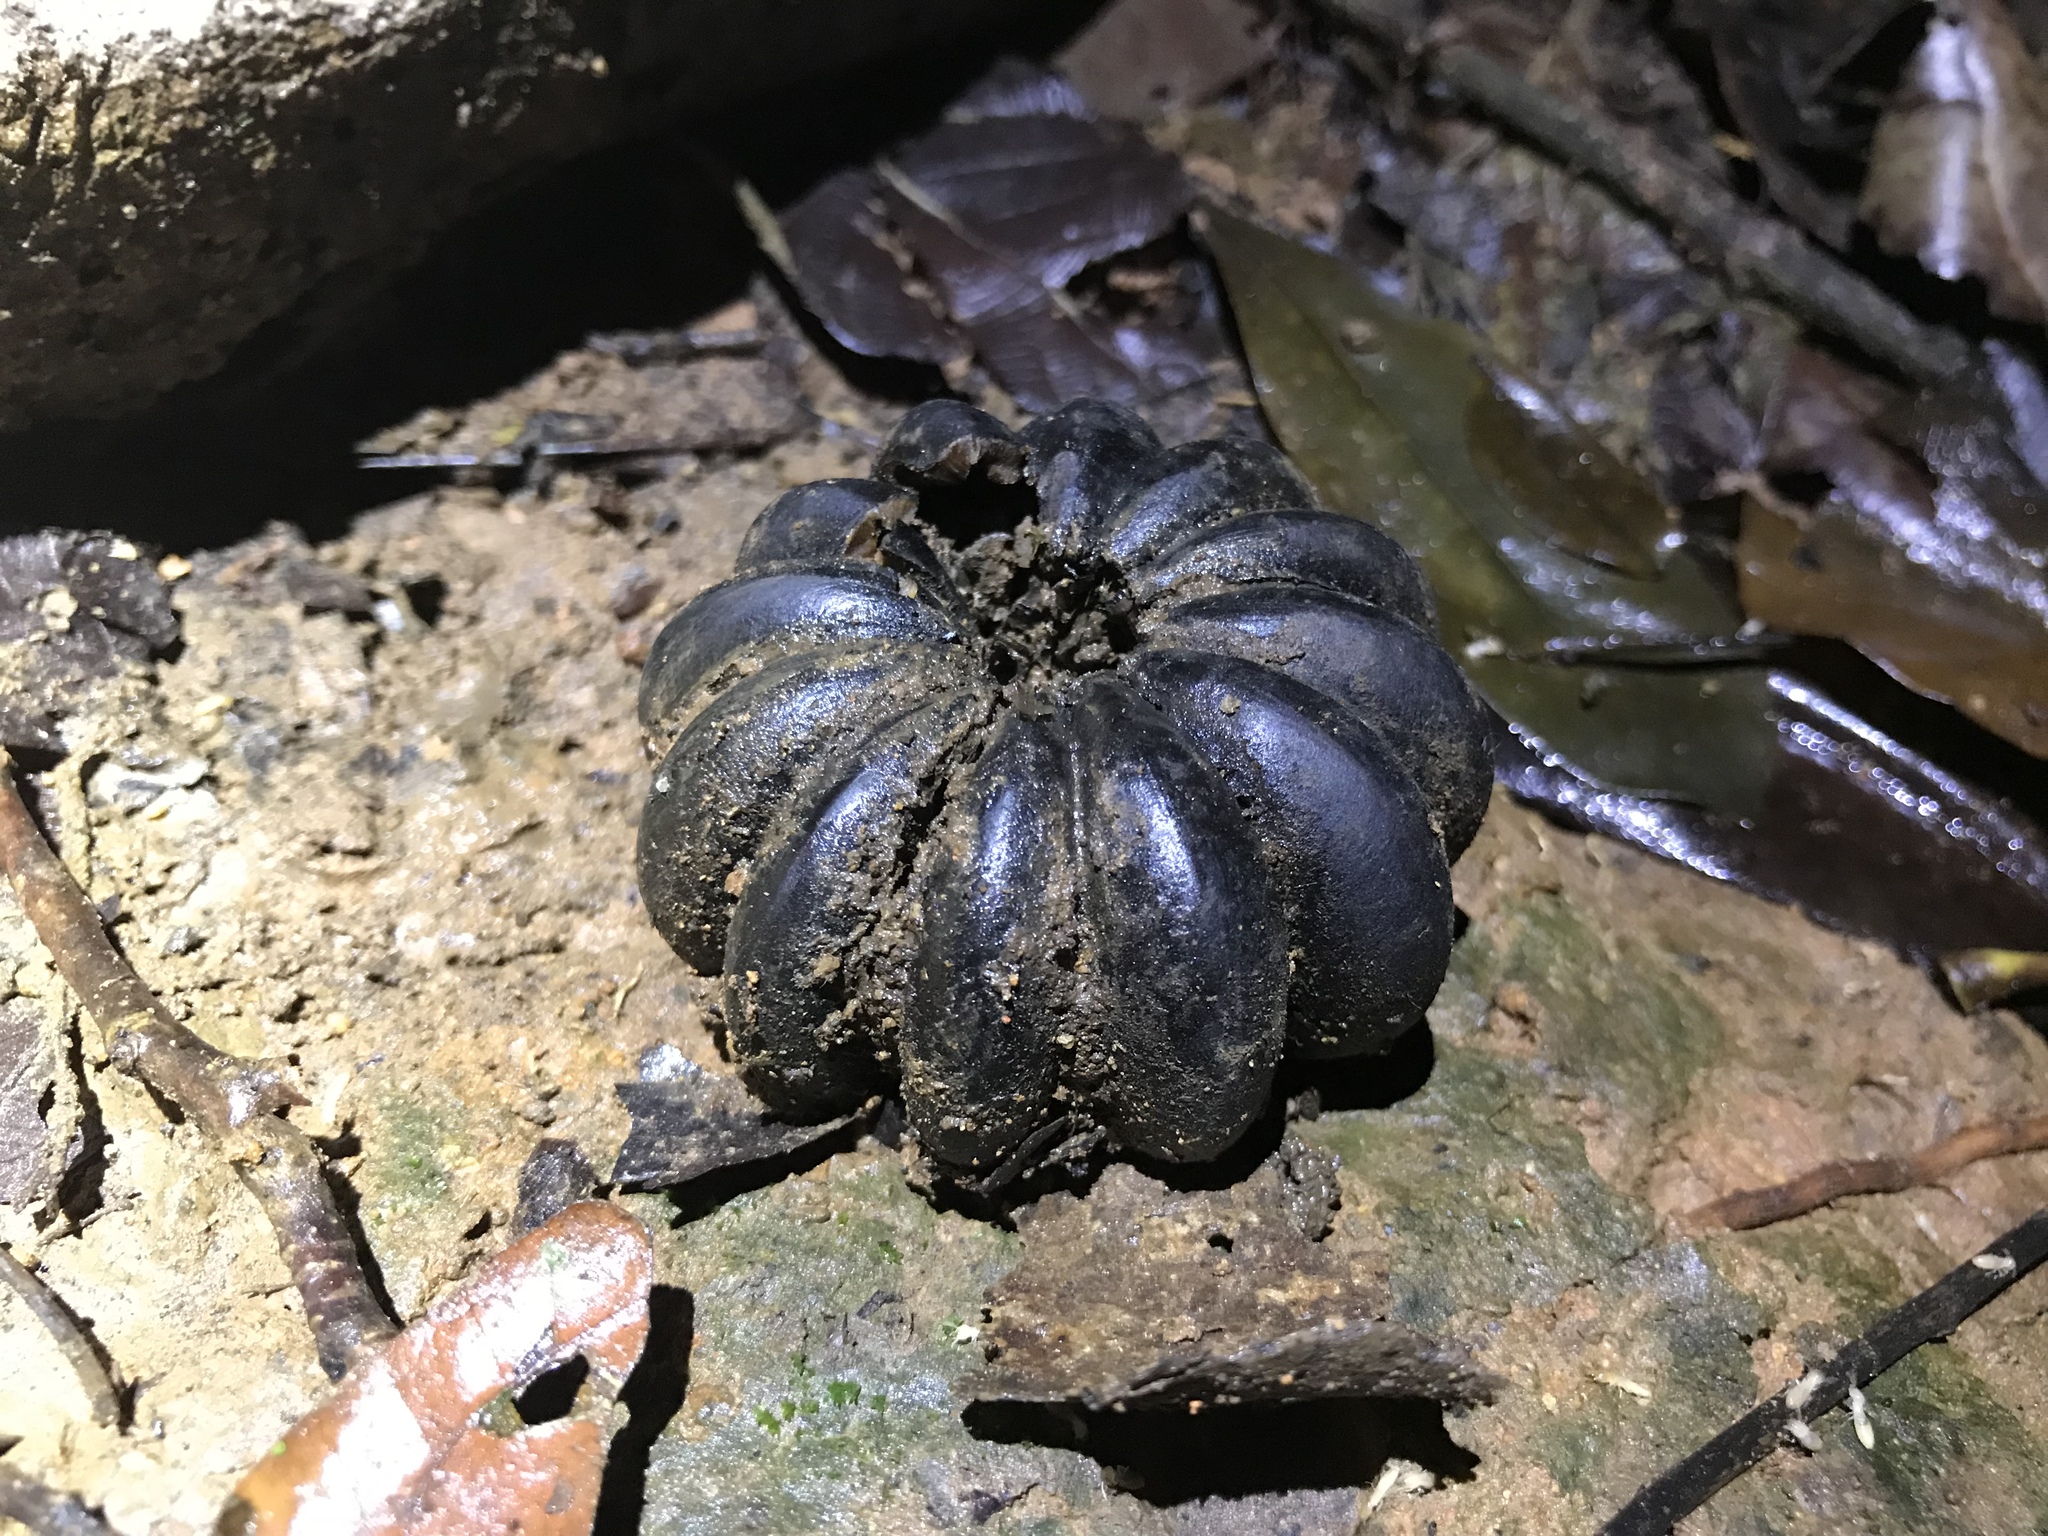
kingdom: Plantae
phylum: Tracheophyta
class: Magnoliopsida
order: Malpighiales
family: Euphorbiaceae
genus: Hura
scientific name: Hura crepitans
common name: Sandboxtree
